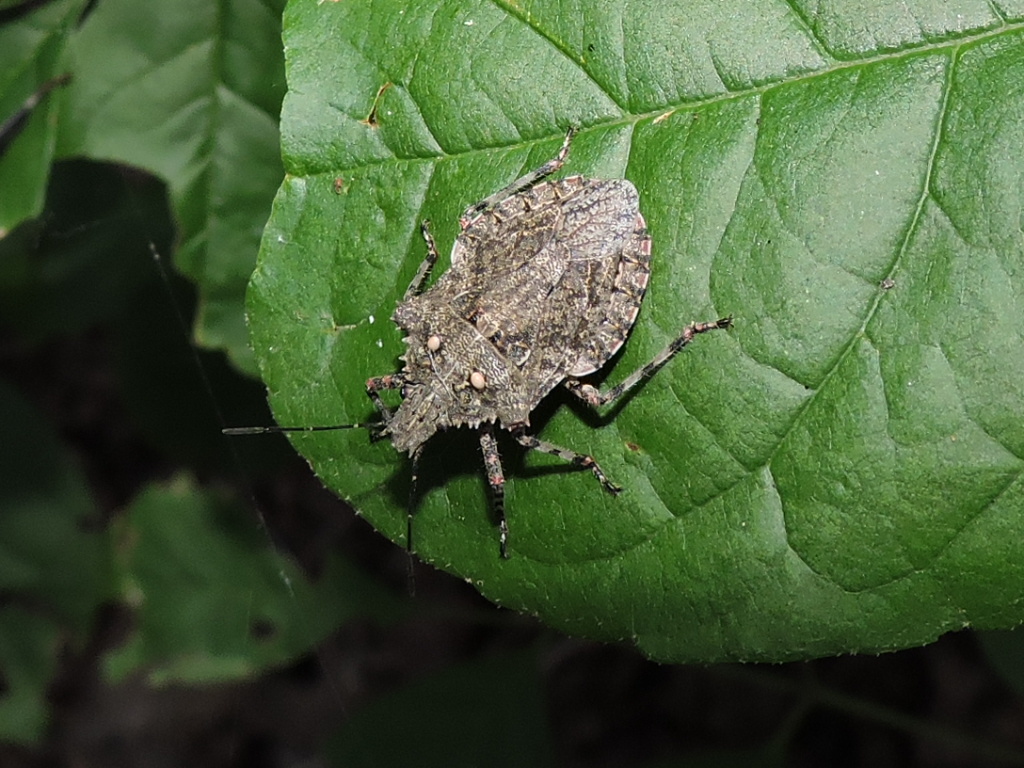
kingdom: Animalia
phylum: Arthropoda
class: Insecta
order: Hemiptera
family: Pentatomidae
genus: Brochymena
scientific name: Brochymena chelonoides
